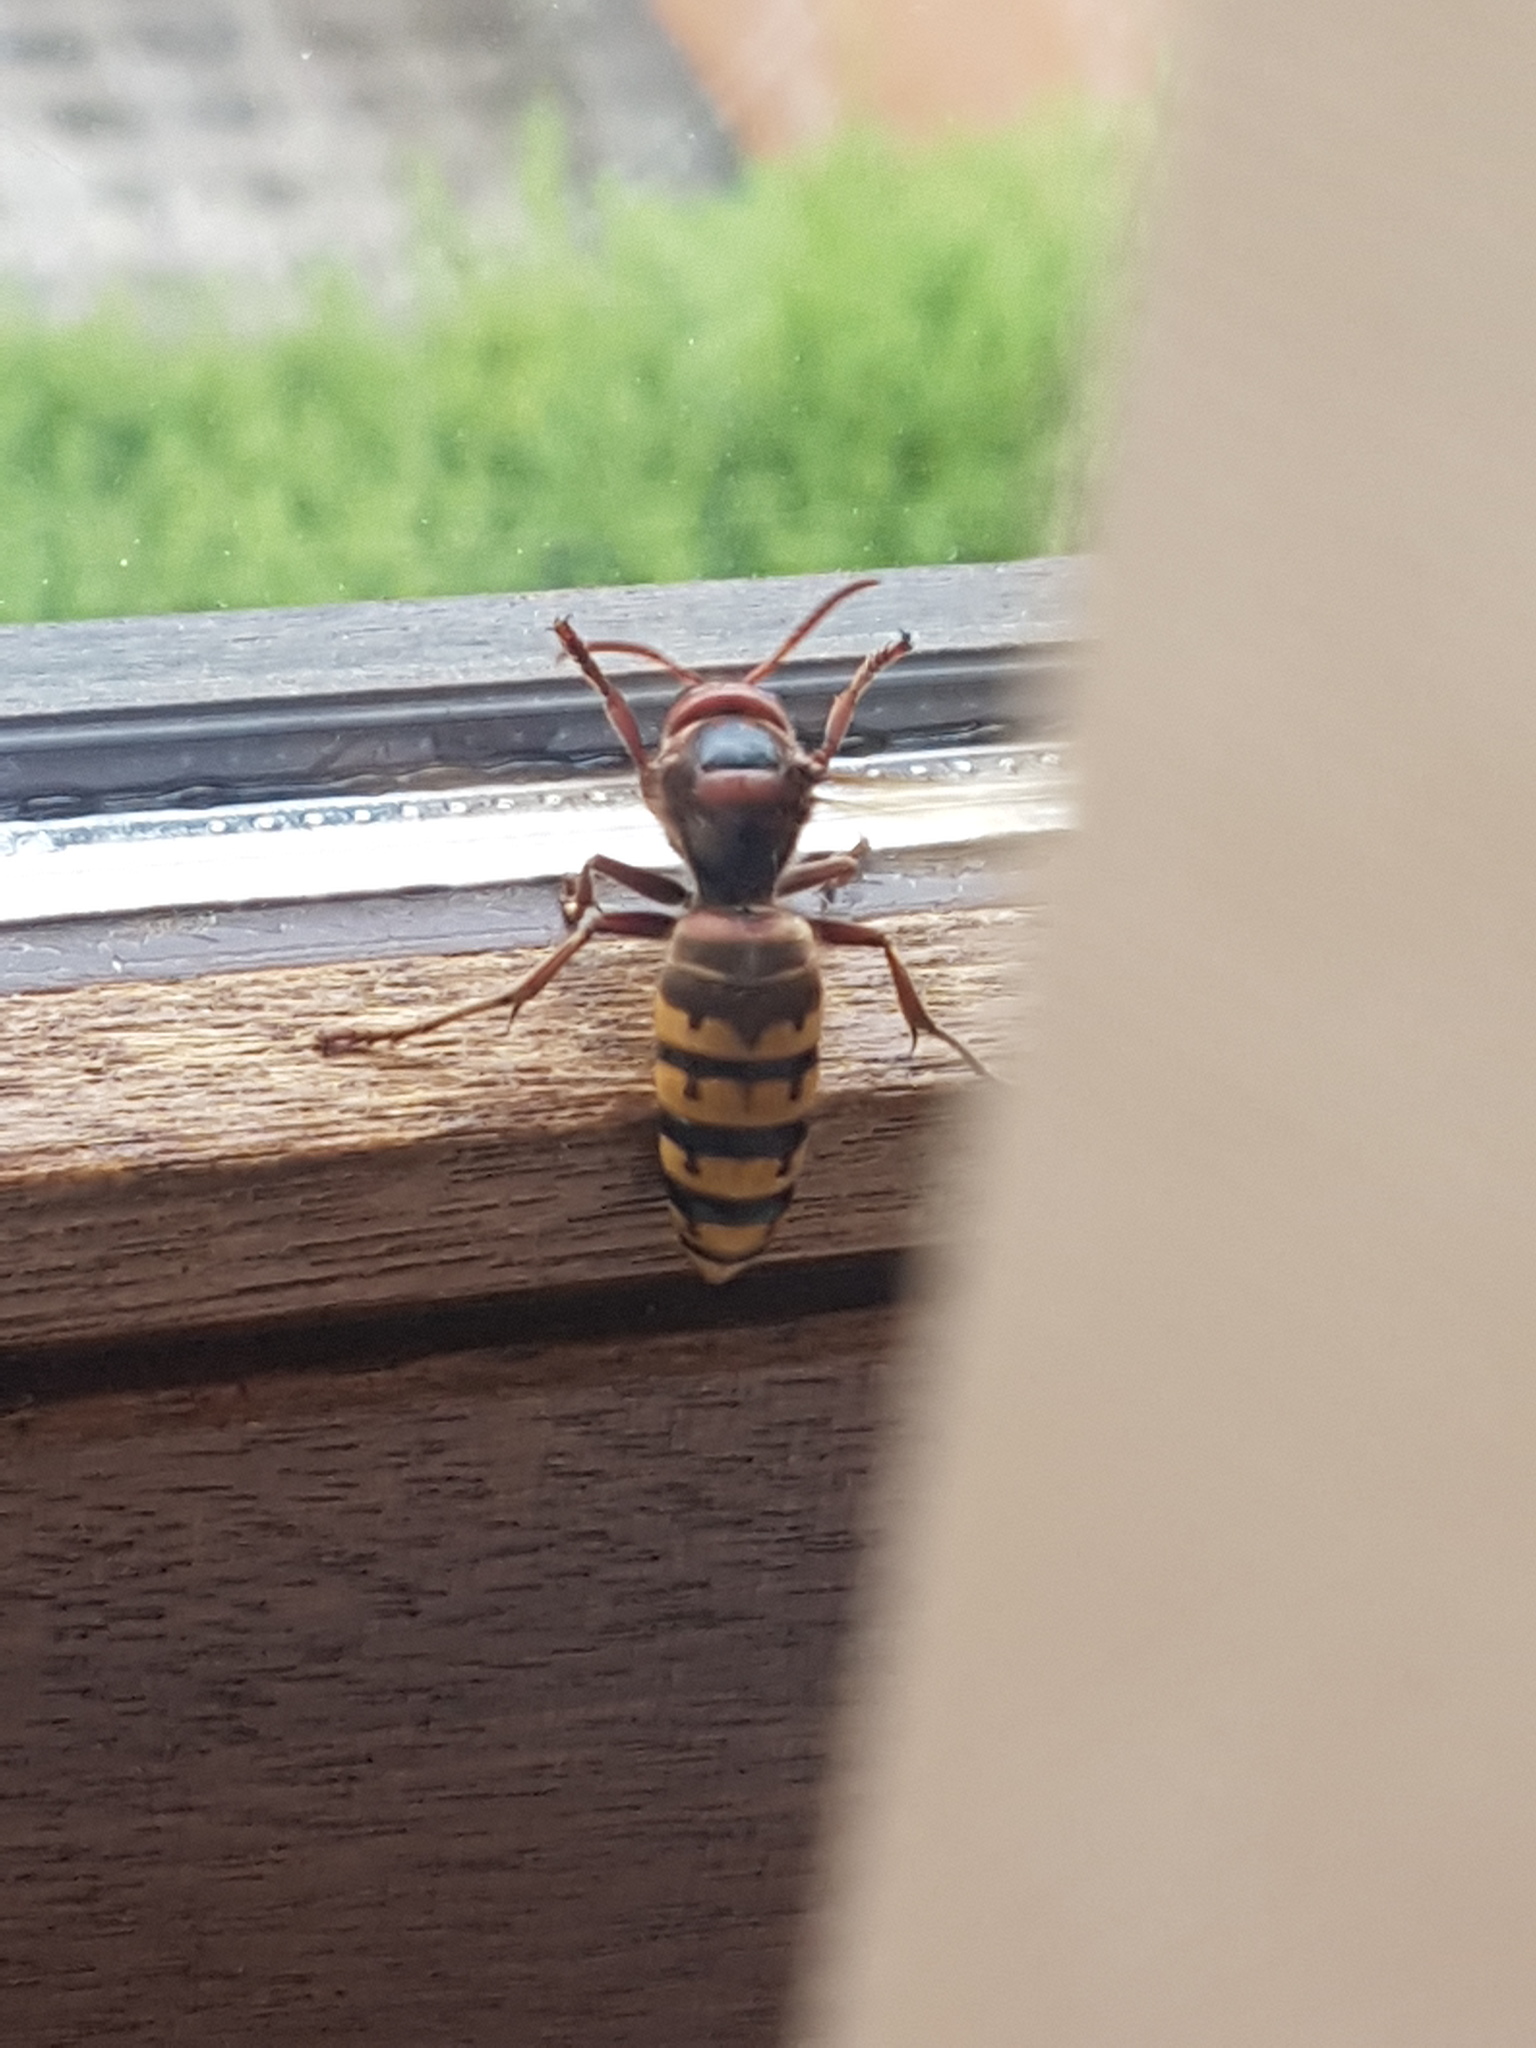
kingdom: Animalia
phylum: Arthropoda
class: Insecta
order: Hymenoptera
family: Vespidae
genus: Vespa
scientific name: Vespa crabro
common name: Hornet
